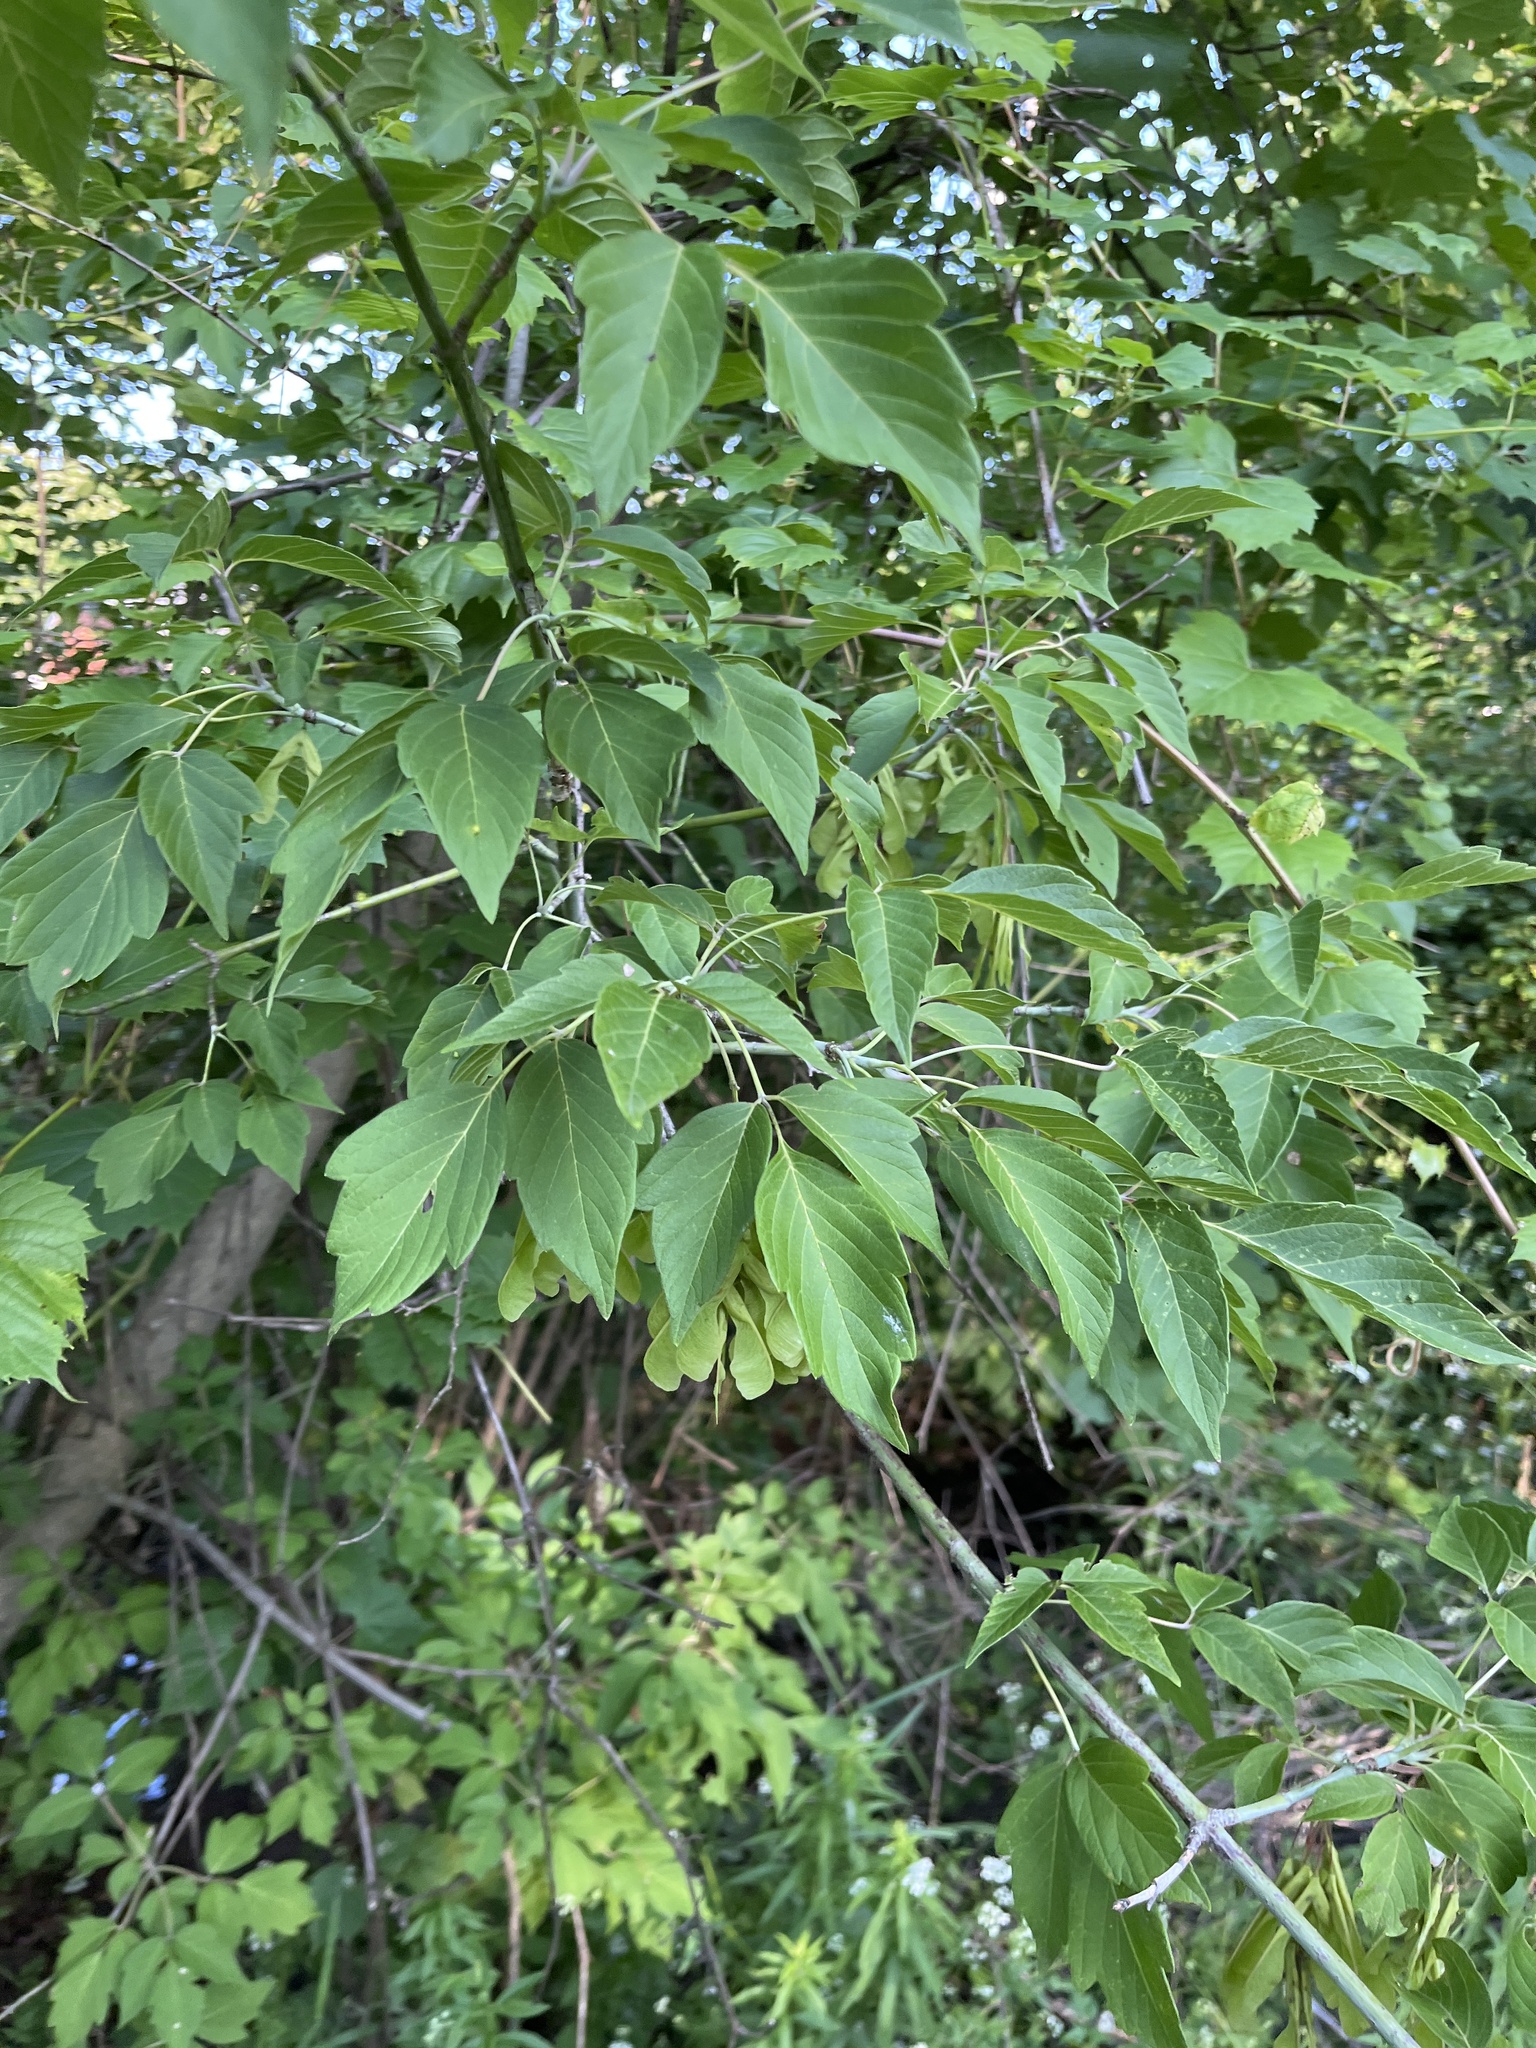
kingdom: Plantae
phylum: Tracheophyta
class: Magnoliopsida
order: Sapindales
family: Sapindaceae
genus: Acer
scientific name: Acer negundo
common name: Ashleaf maple
